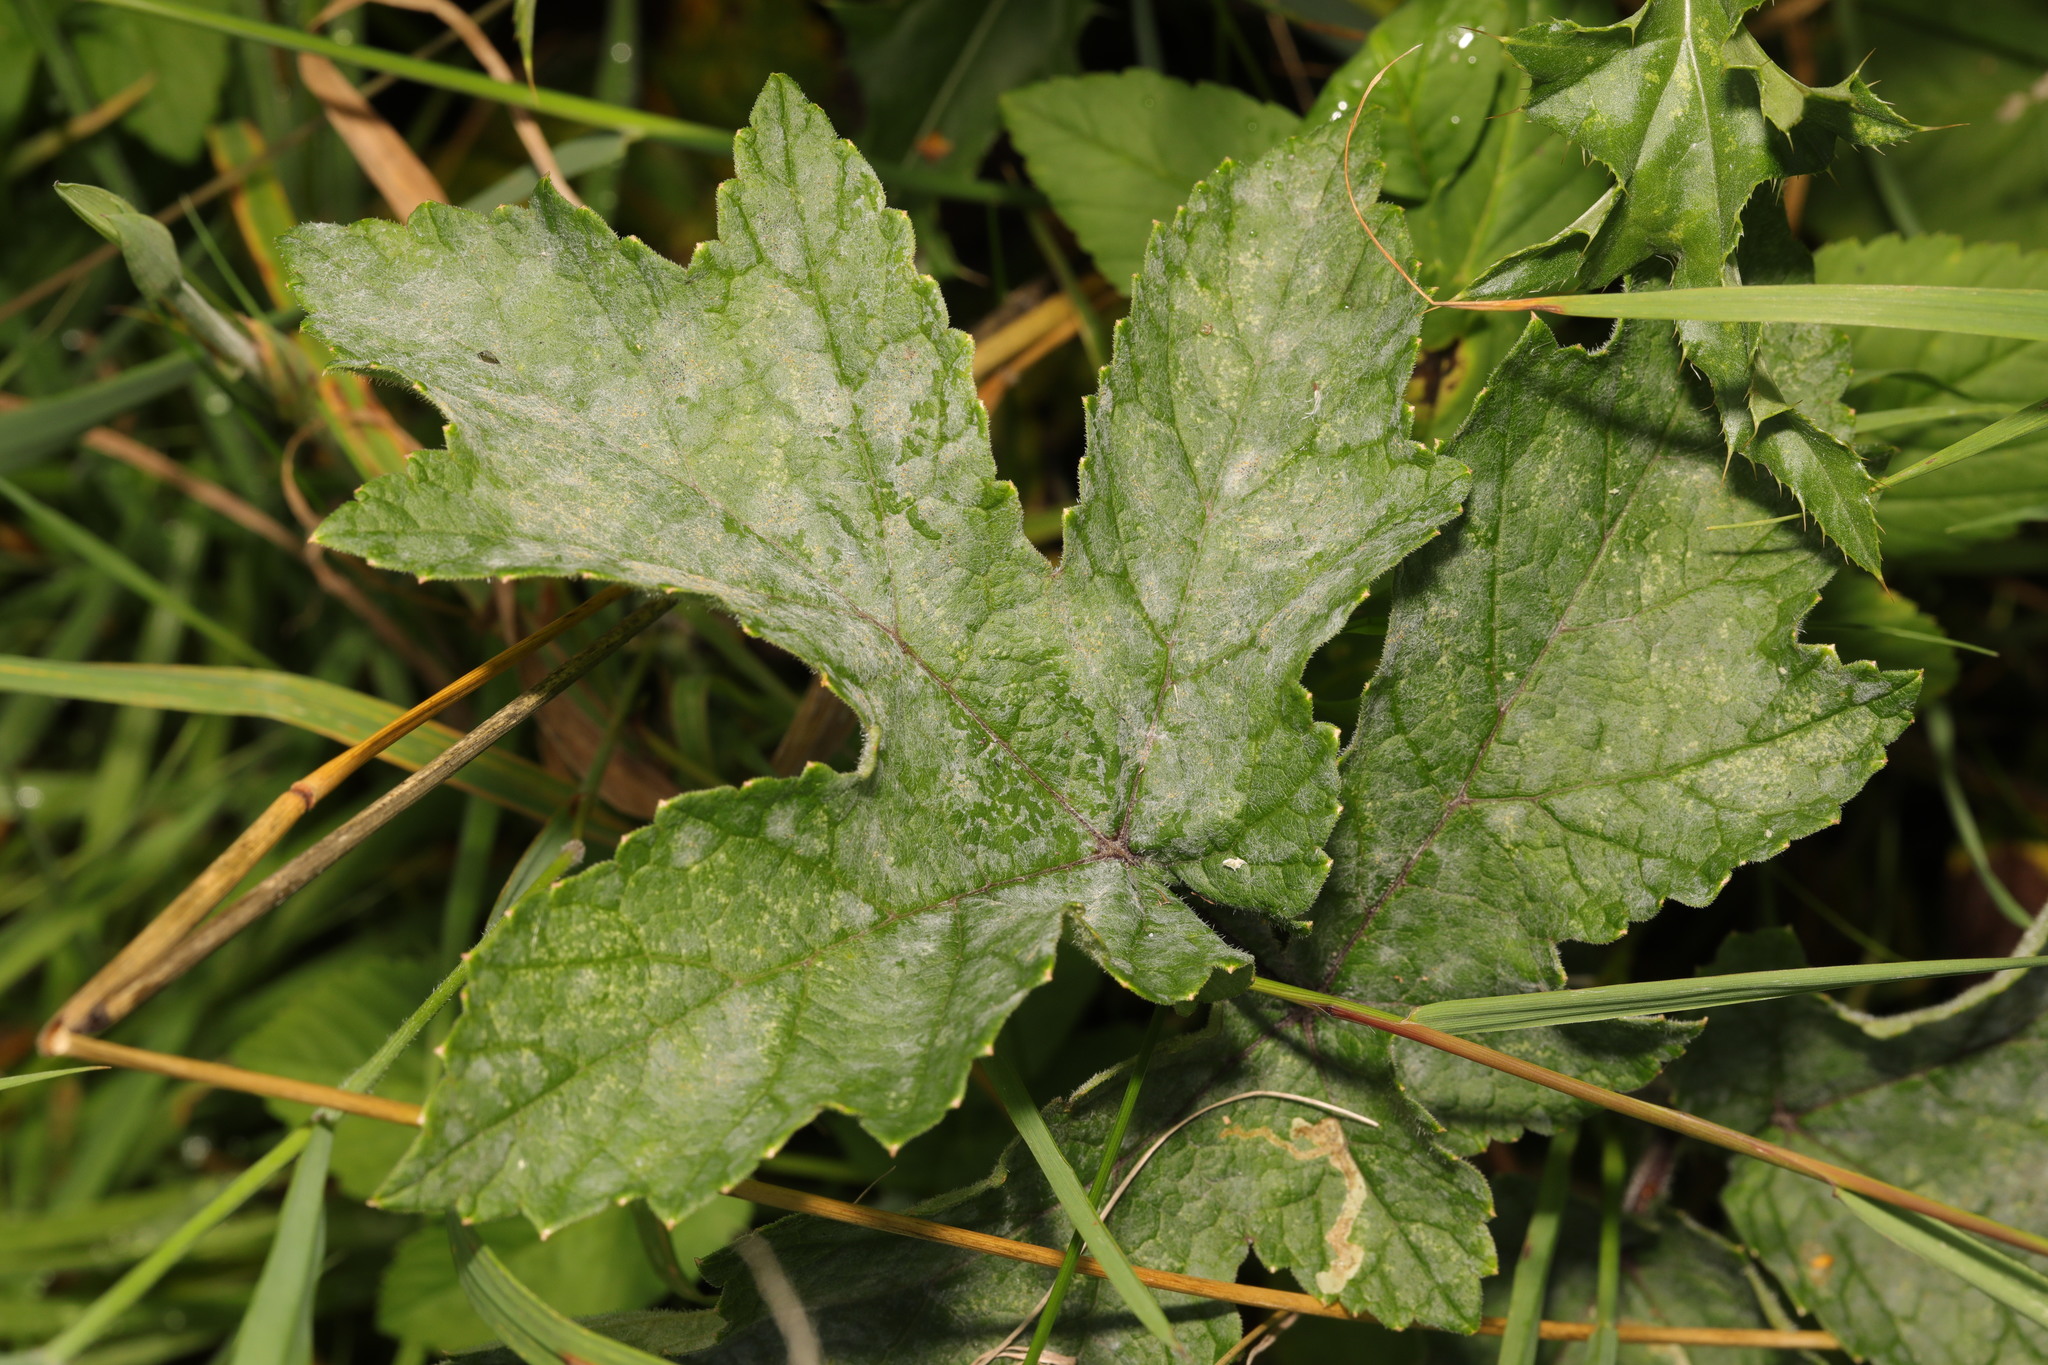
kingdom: Fungi
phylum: Ascomycota
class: Leotiomycetes
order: Helotiales
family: Erysiphaceae
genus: Erysiphe
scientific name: Erysiphe heraclei
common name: Umbellifer mildew
